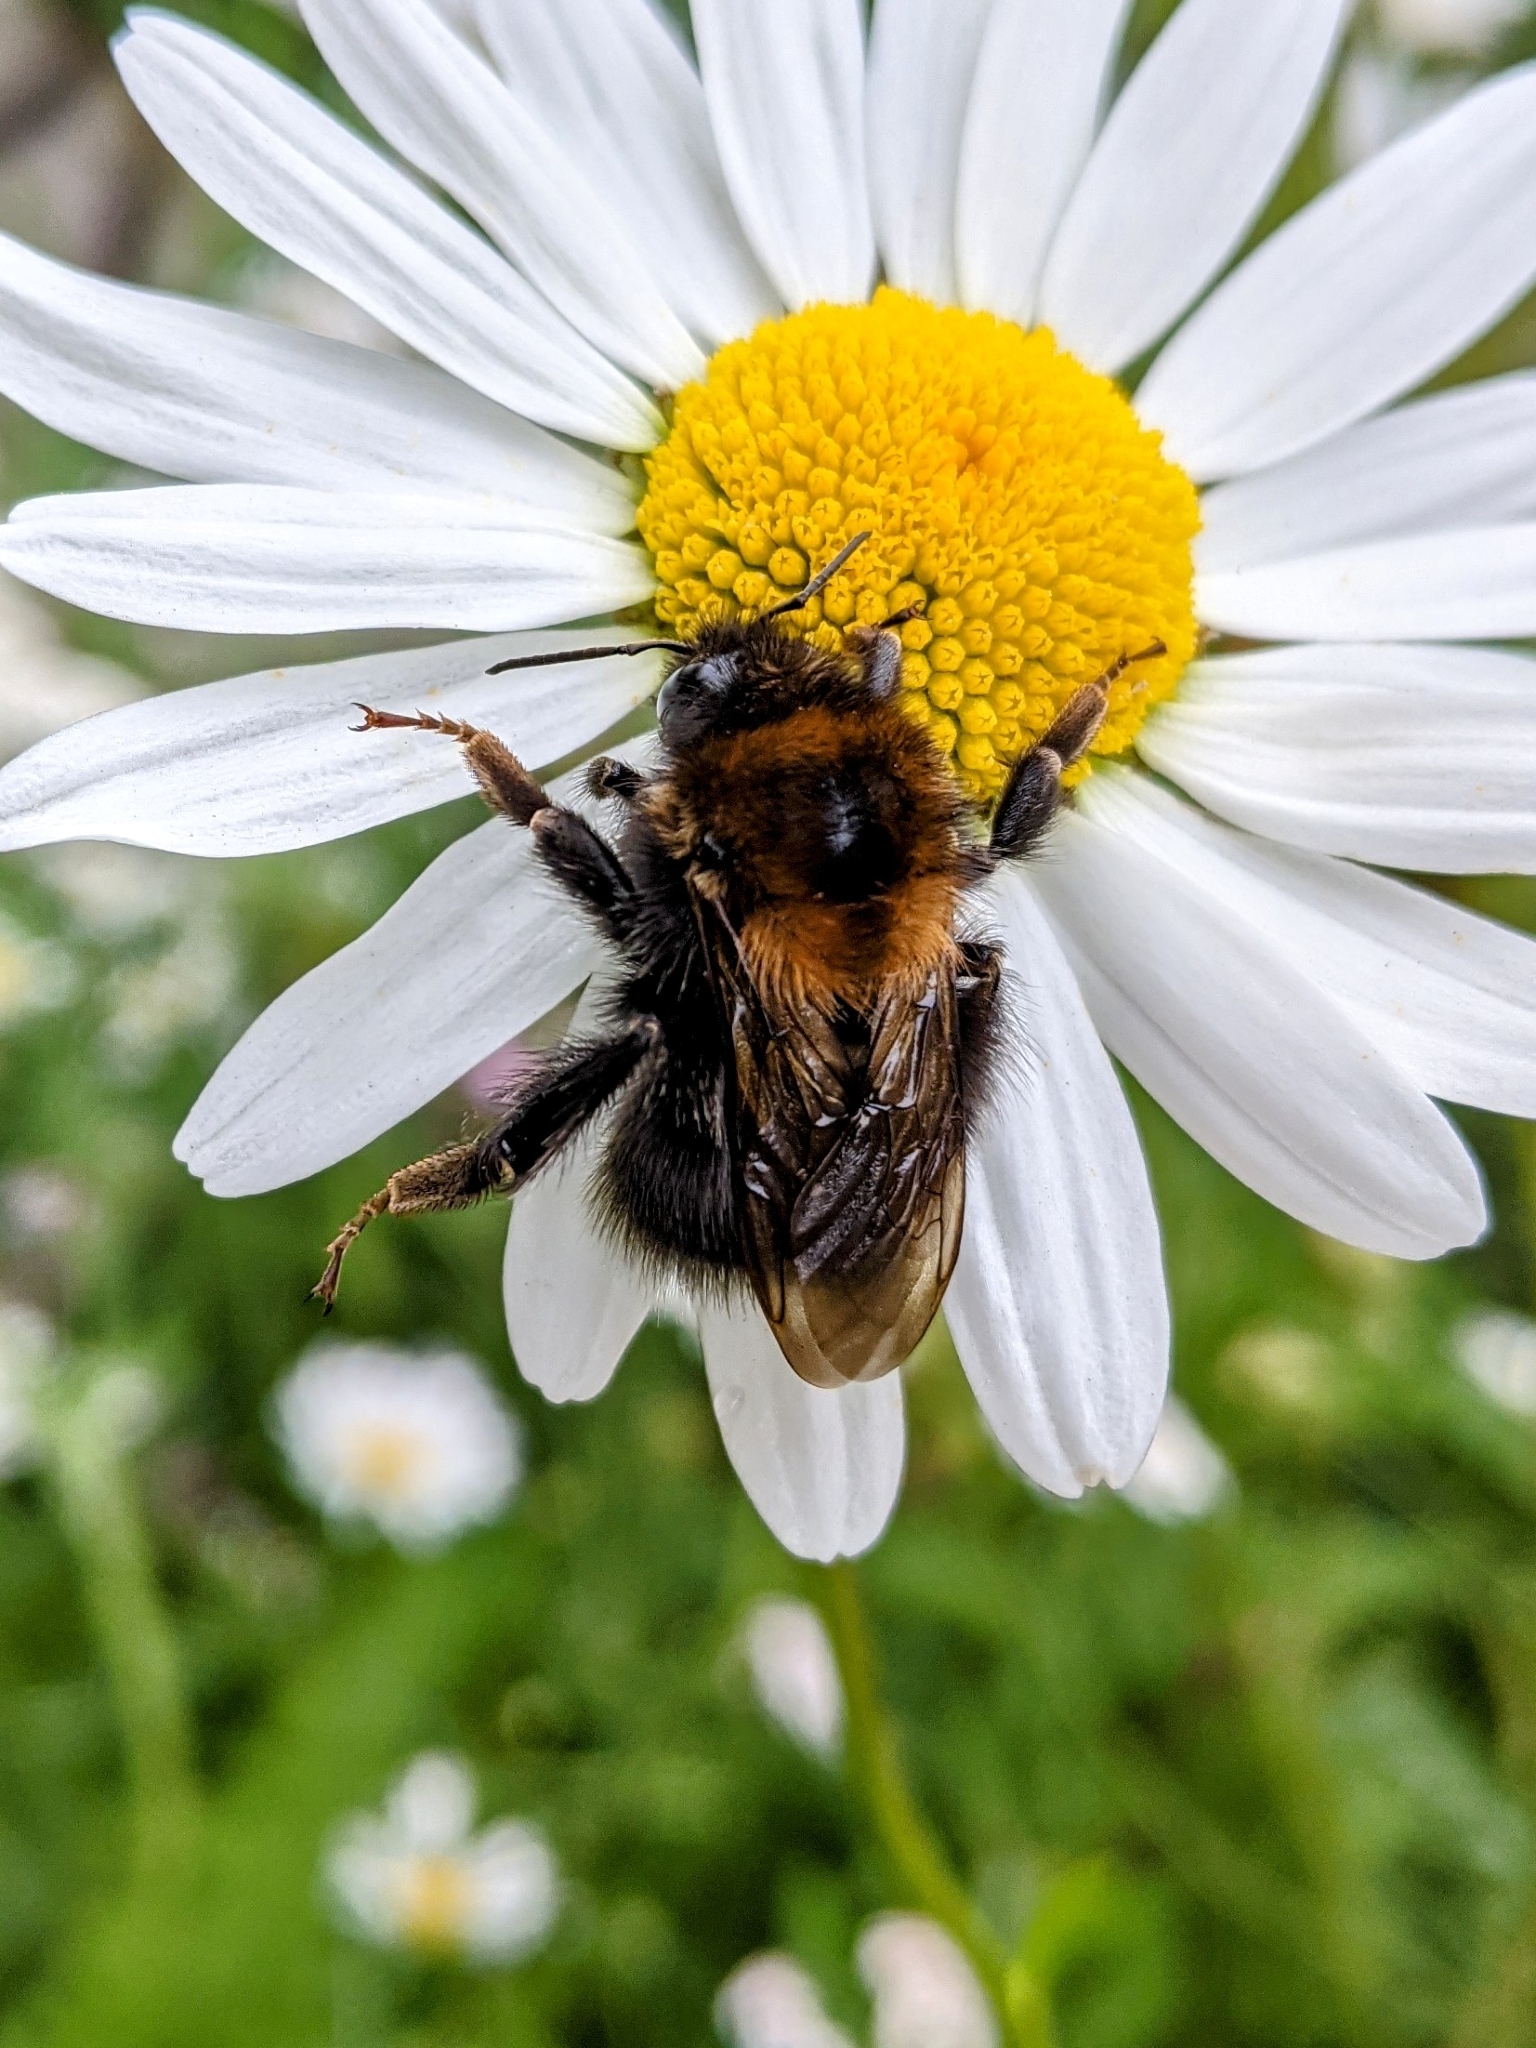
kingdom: Animalia
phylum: Arthropoda
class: Insecta
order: Hymenoptera
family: Apidae
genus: Bombus
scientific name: Bombus hypnorum
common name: New garden bumblebee
